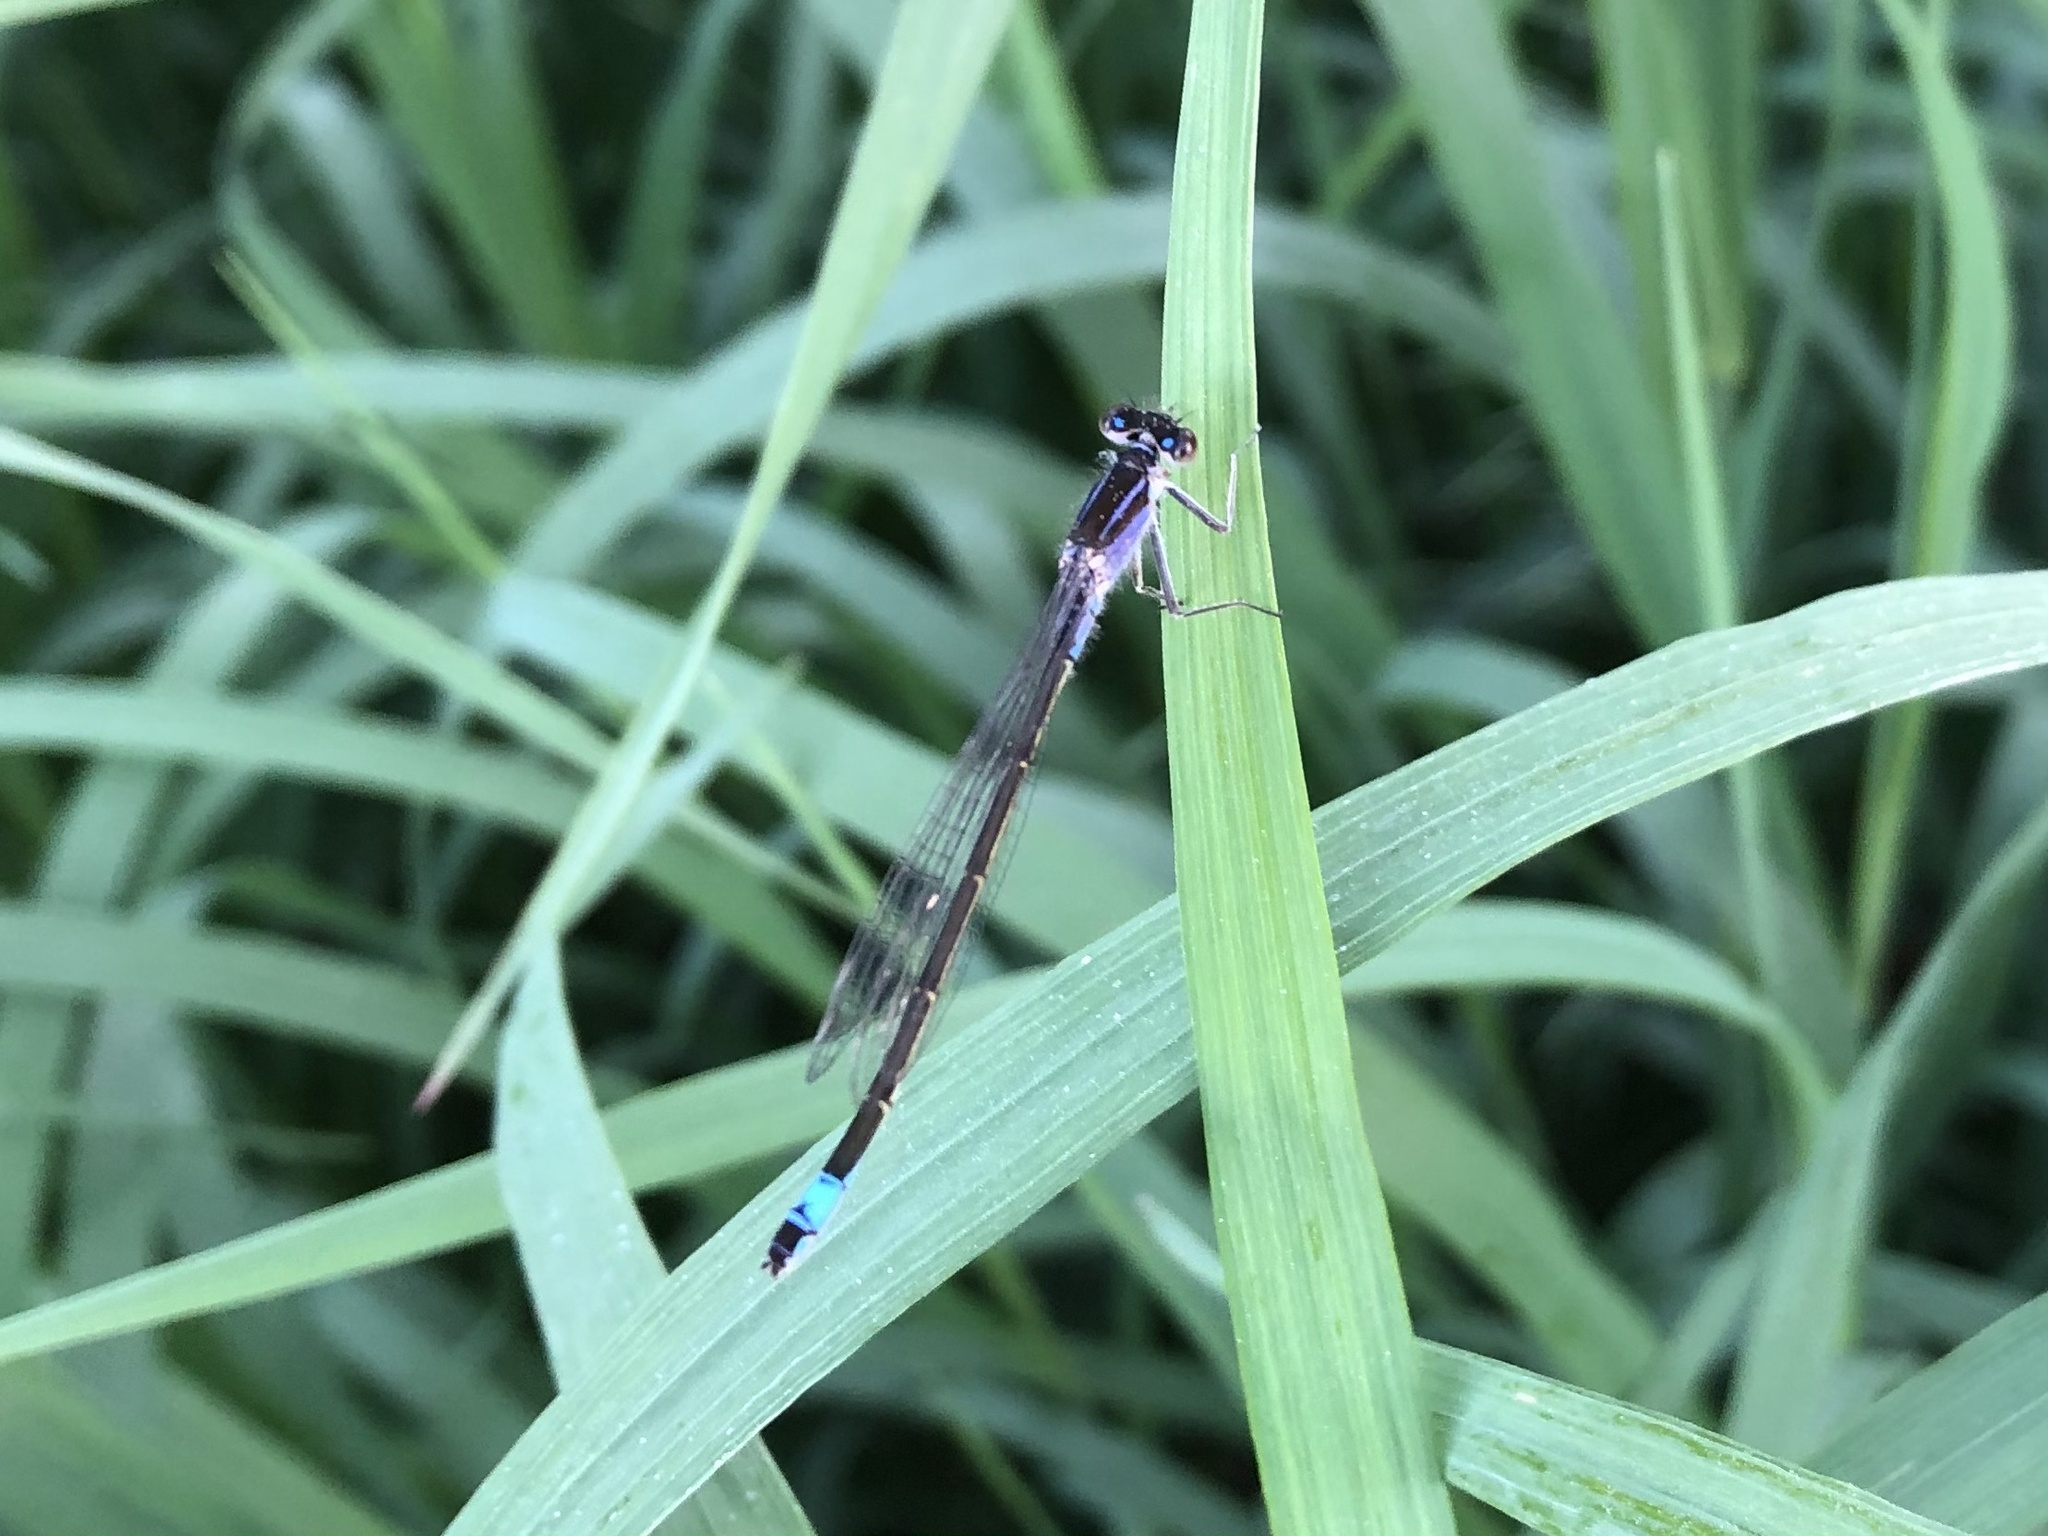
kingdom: Animalia
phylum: Arthropoda
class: Insecta
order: Odonata
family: Coenagrionidae
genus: Ischnura
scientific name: Ischnura elegans
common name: Blue-tailed damselfly
